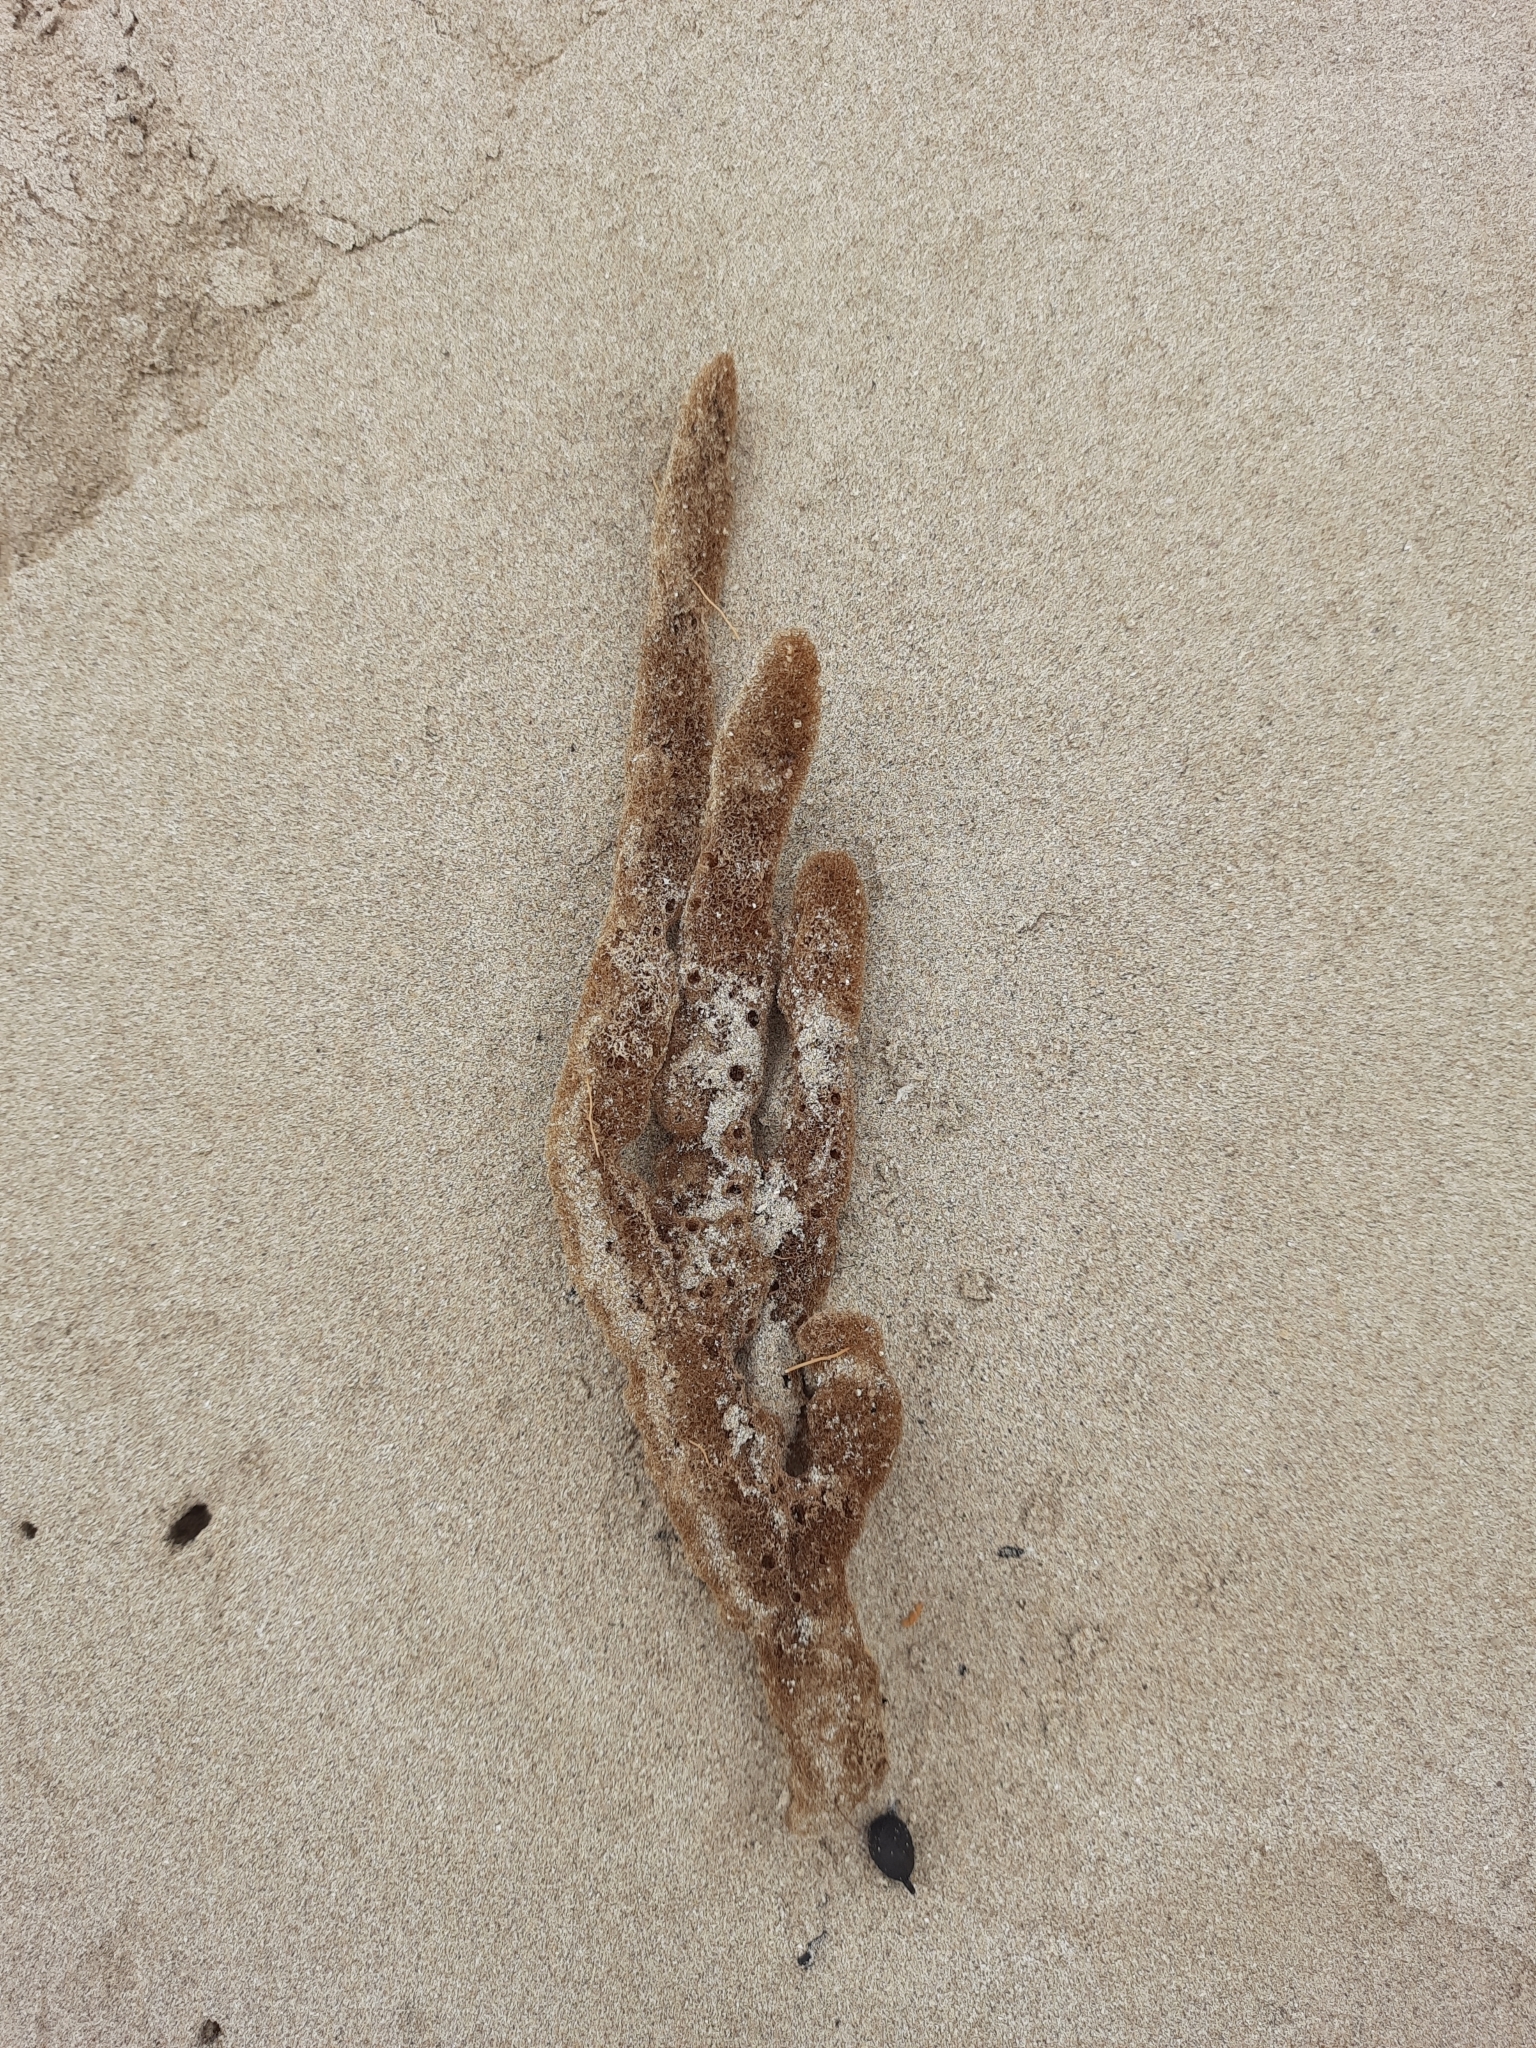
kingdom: Animalia
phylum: Porifera
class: Demospongiae
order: Haplosclerida
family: Callyspongiidae
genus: Dactylia
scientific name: Dactylia varia
